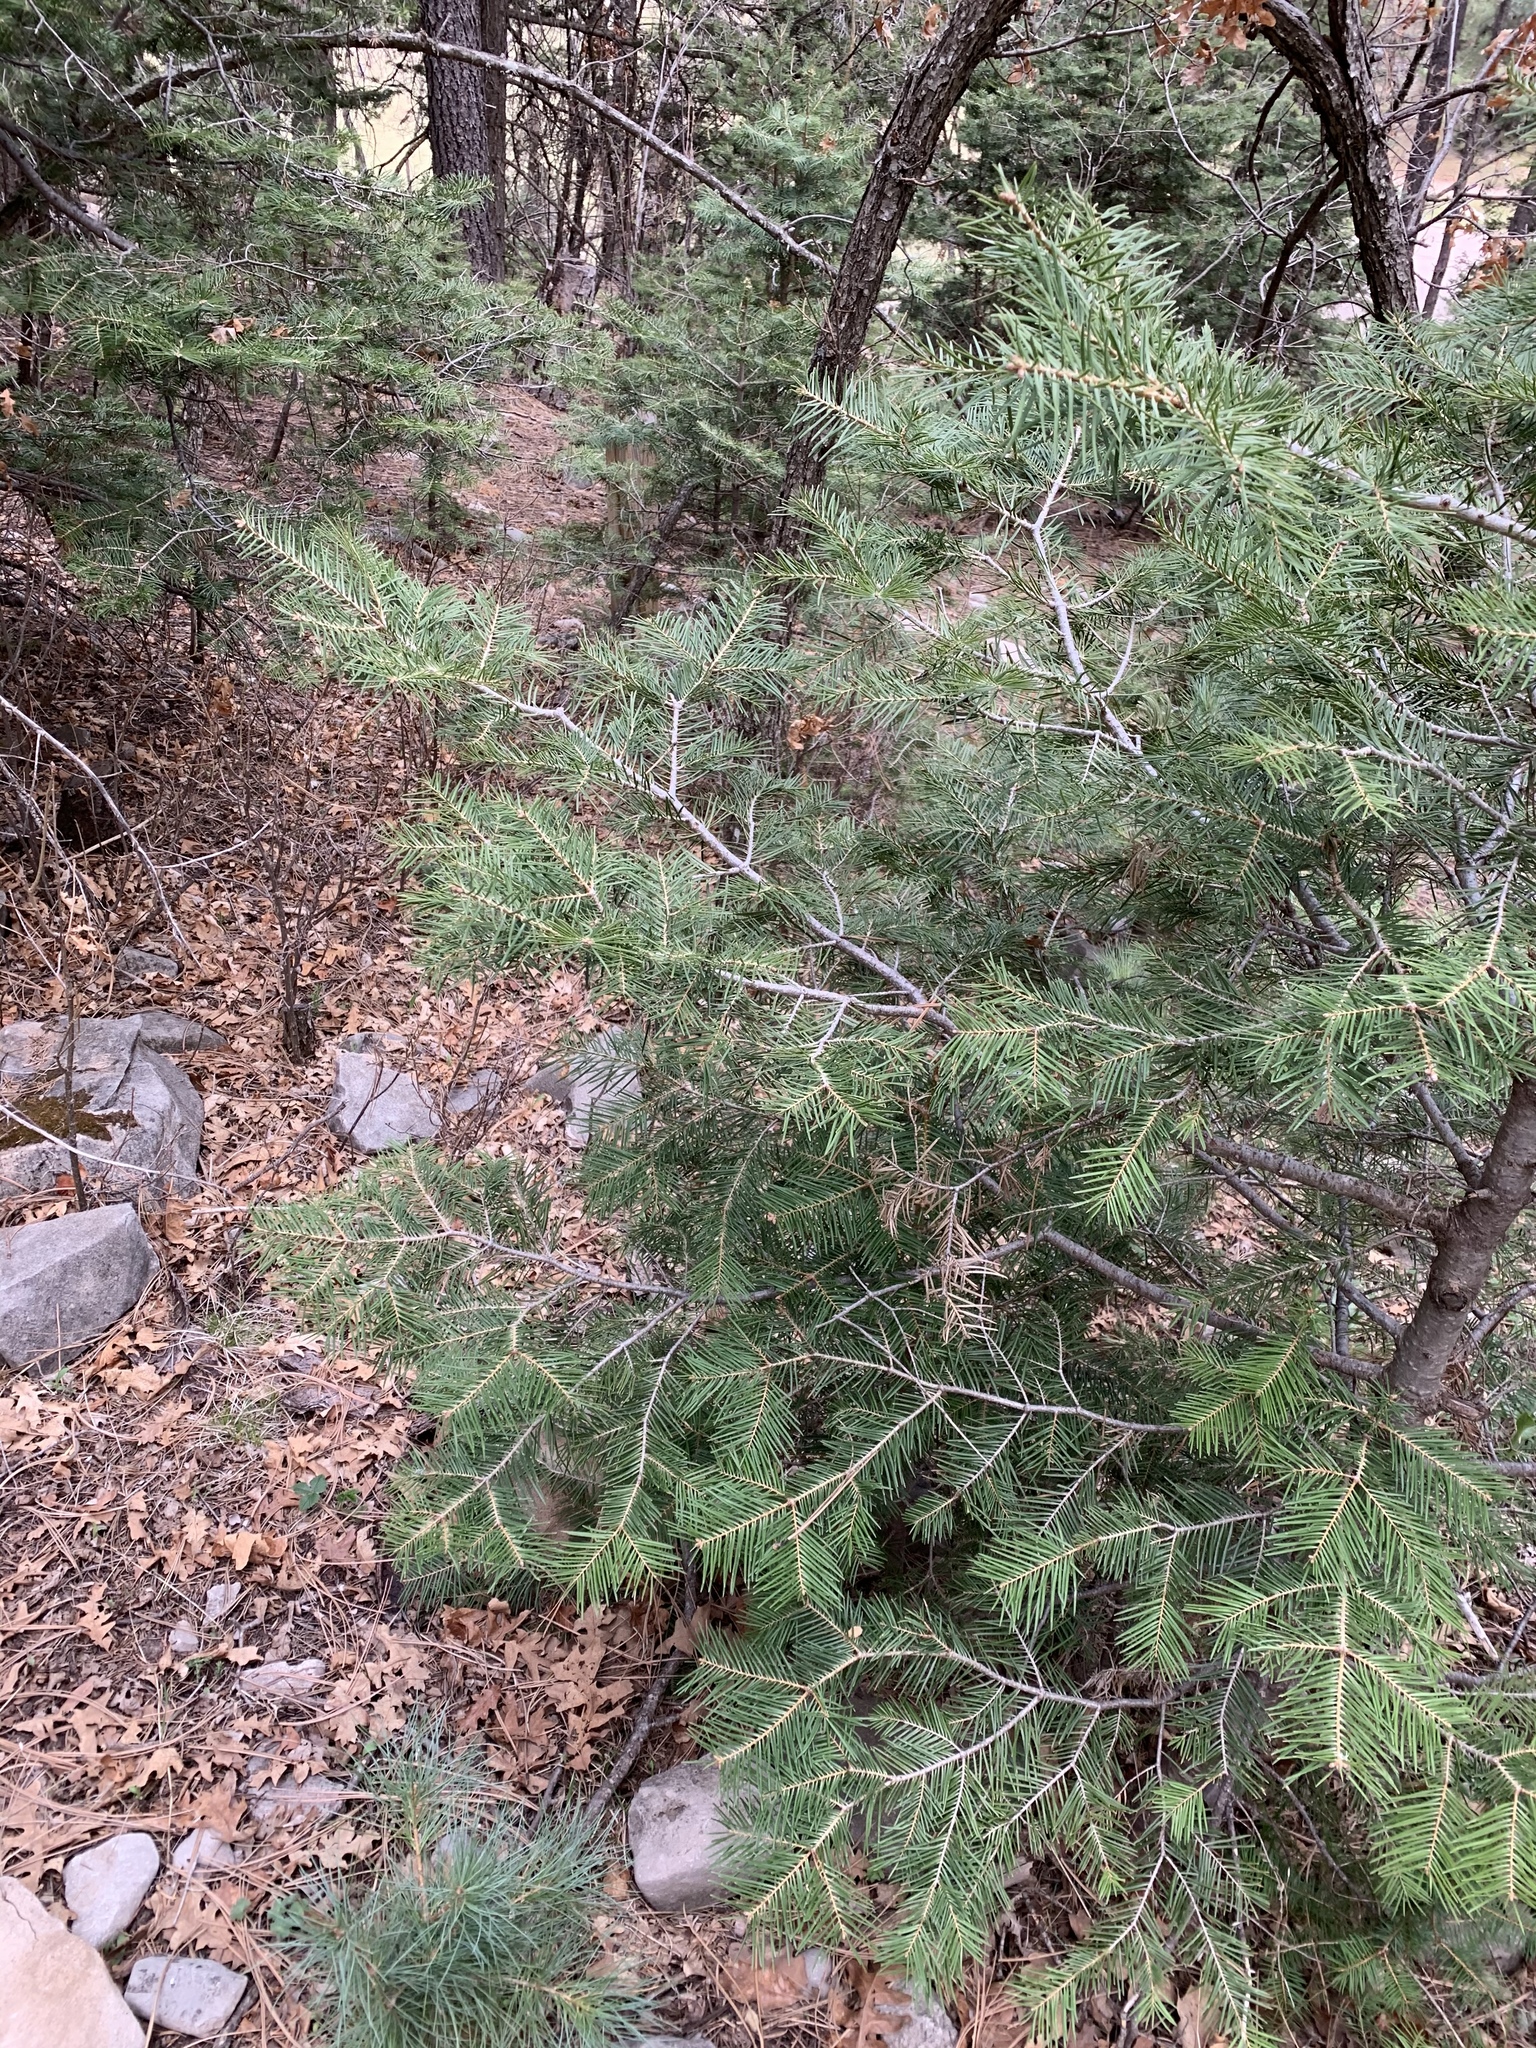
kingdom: Plantae
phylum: Tracheophyta
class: Pinopsida
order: Pinales
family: Pinaceae
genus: Abies
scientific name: Abies concolor
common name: Colorado fir
